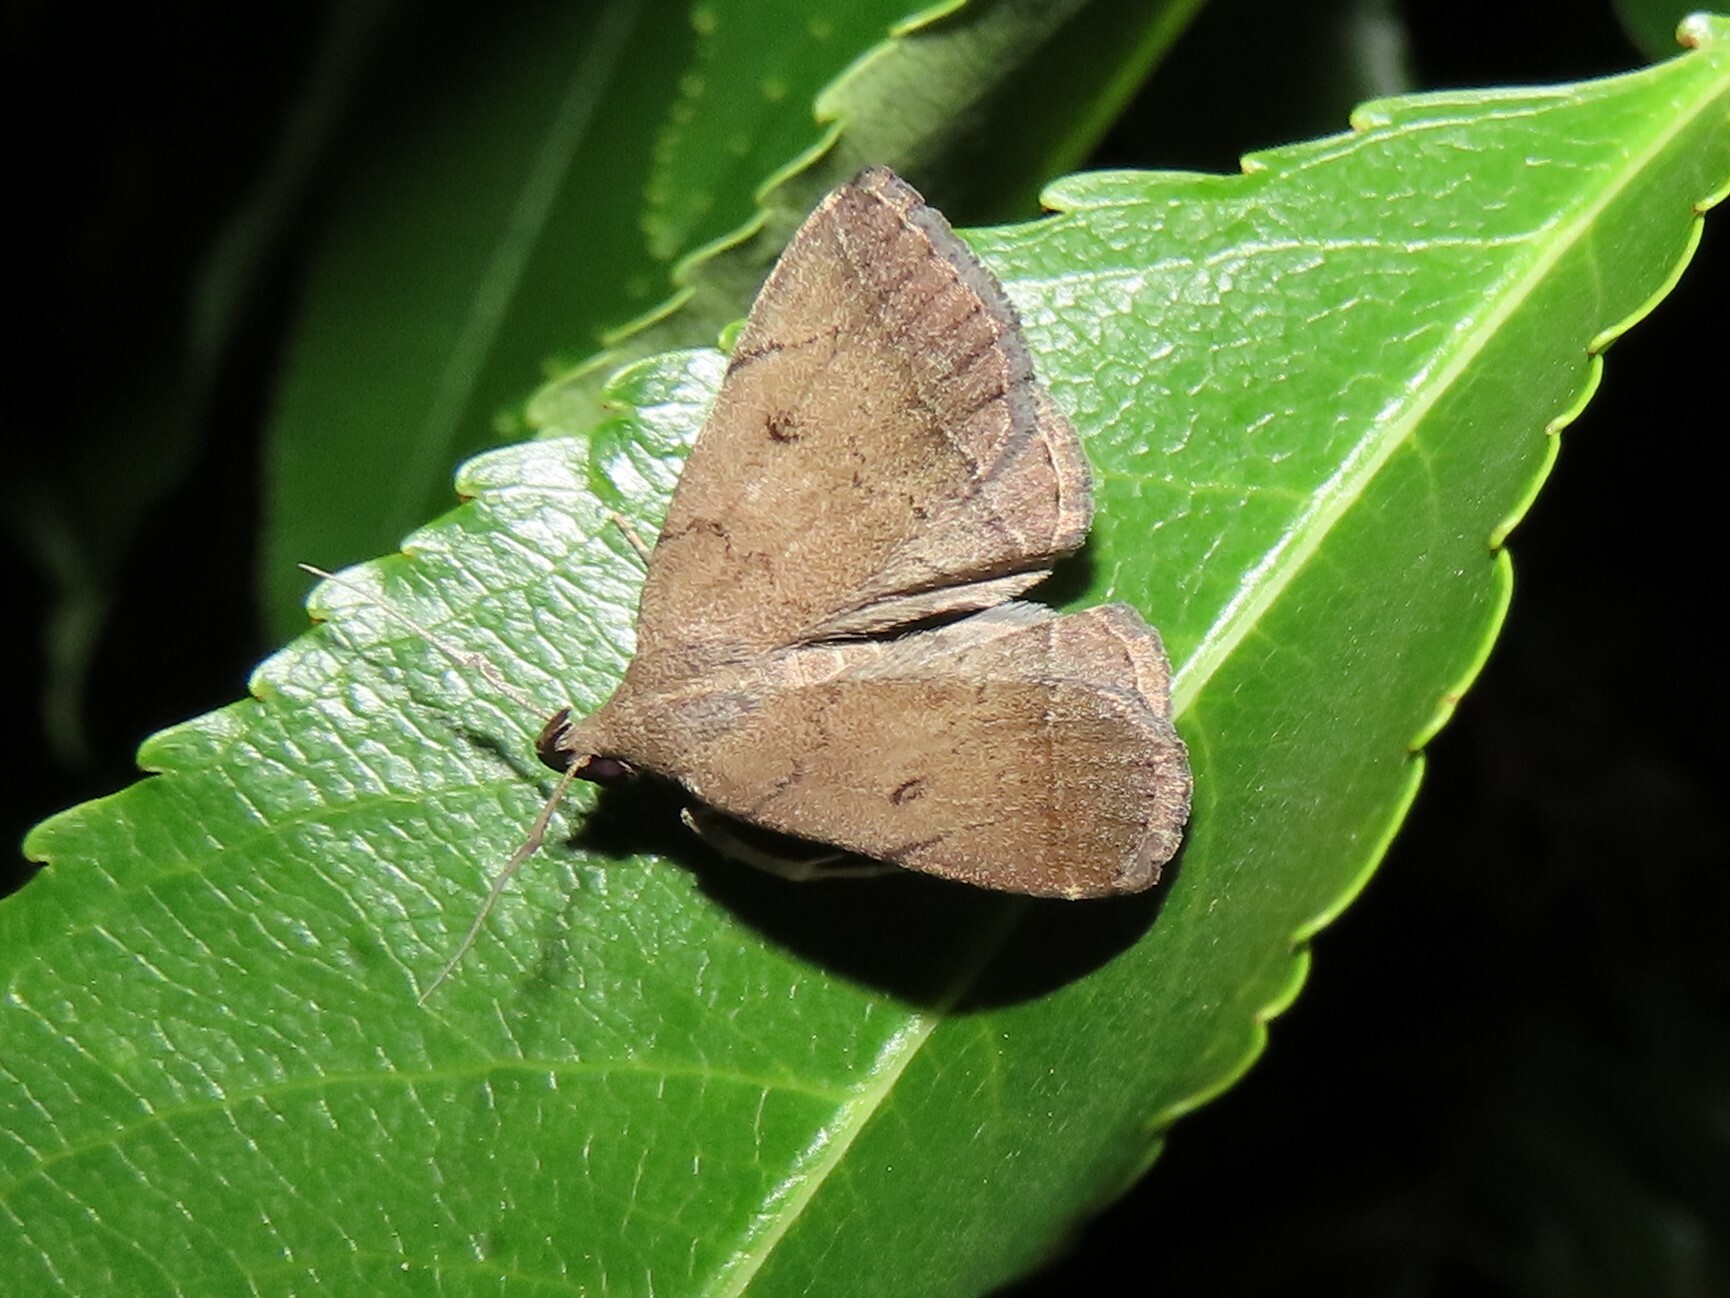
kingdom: Animalia
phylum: Arthropoda
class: Insecta
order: Lepidoptera
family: Erebidae
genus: Zanclognatha
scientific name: Zanclognatha protumnusalis
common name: Complex fan-foot
